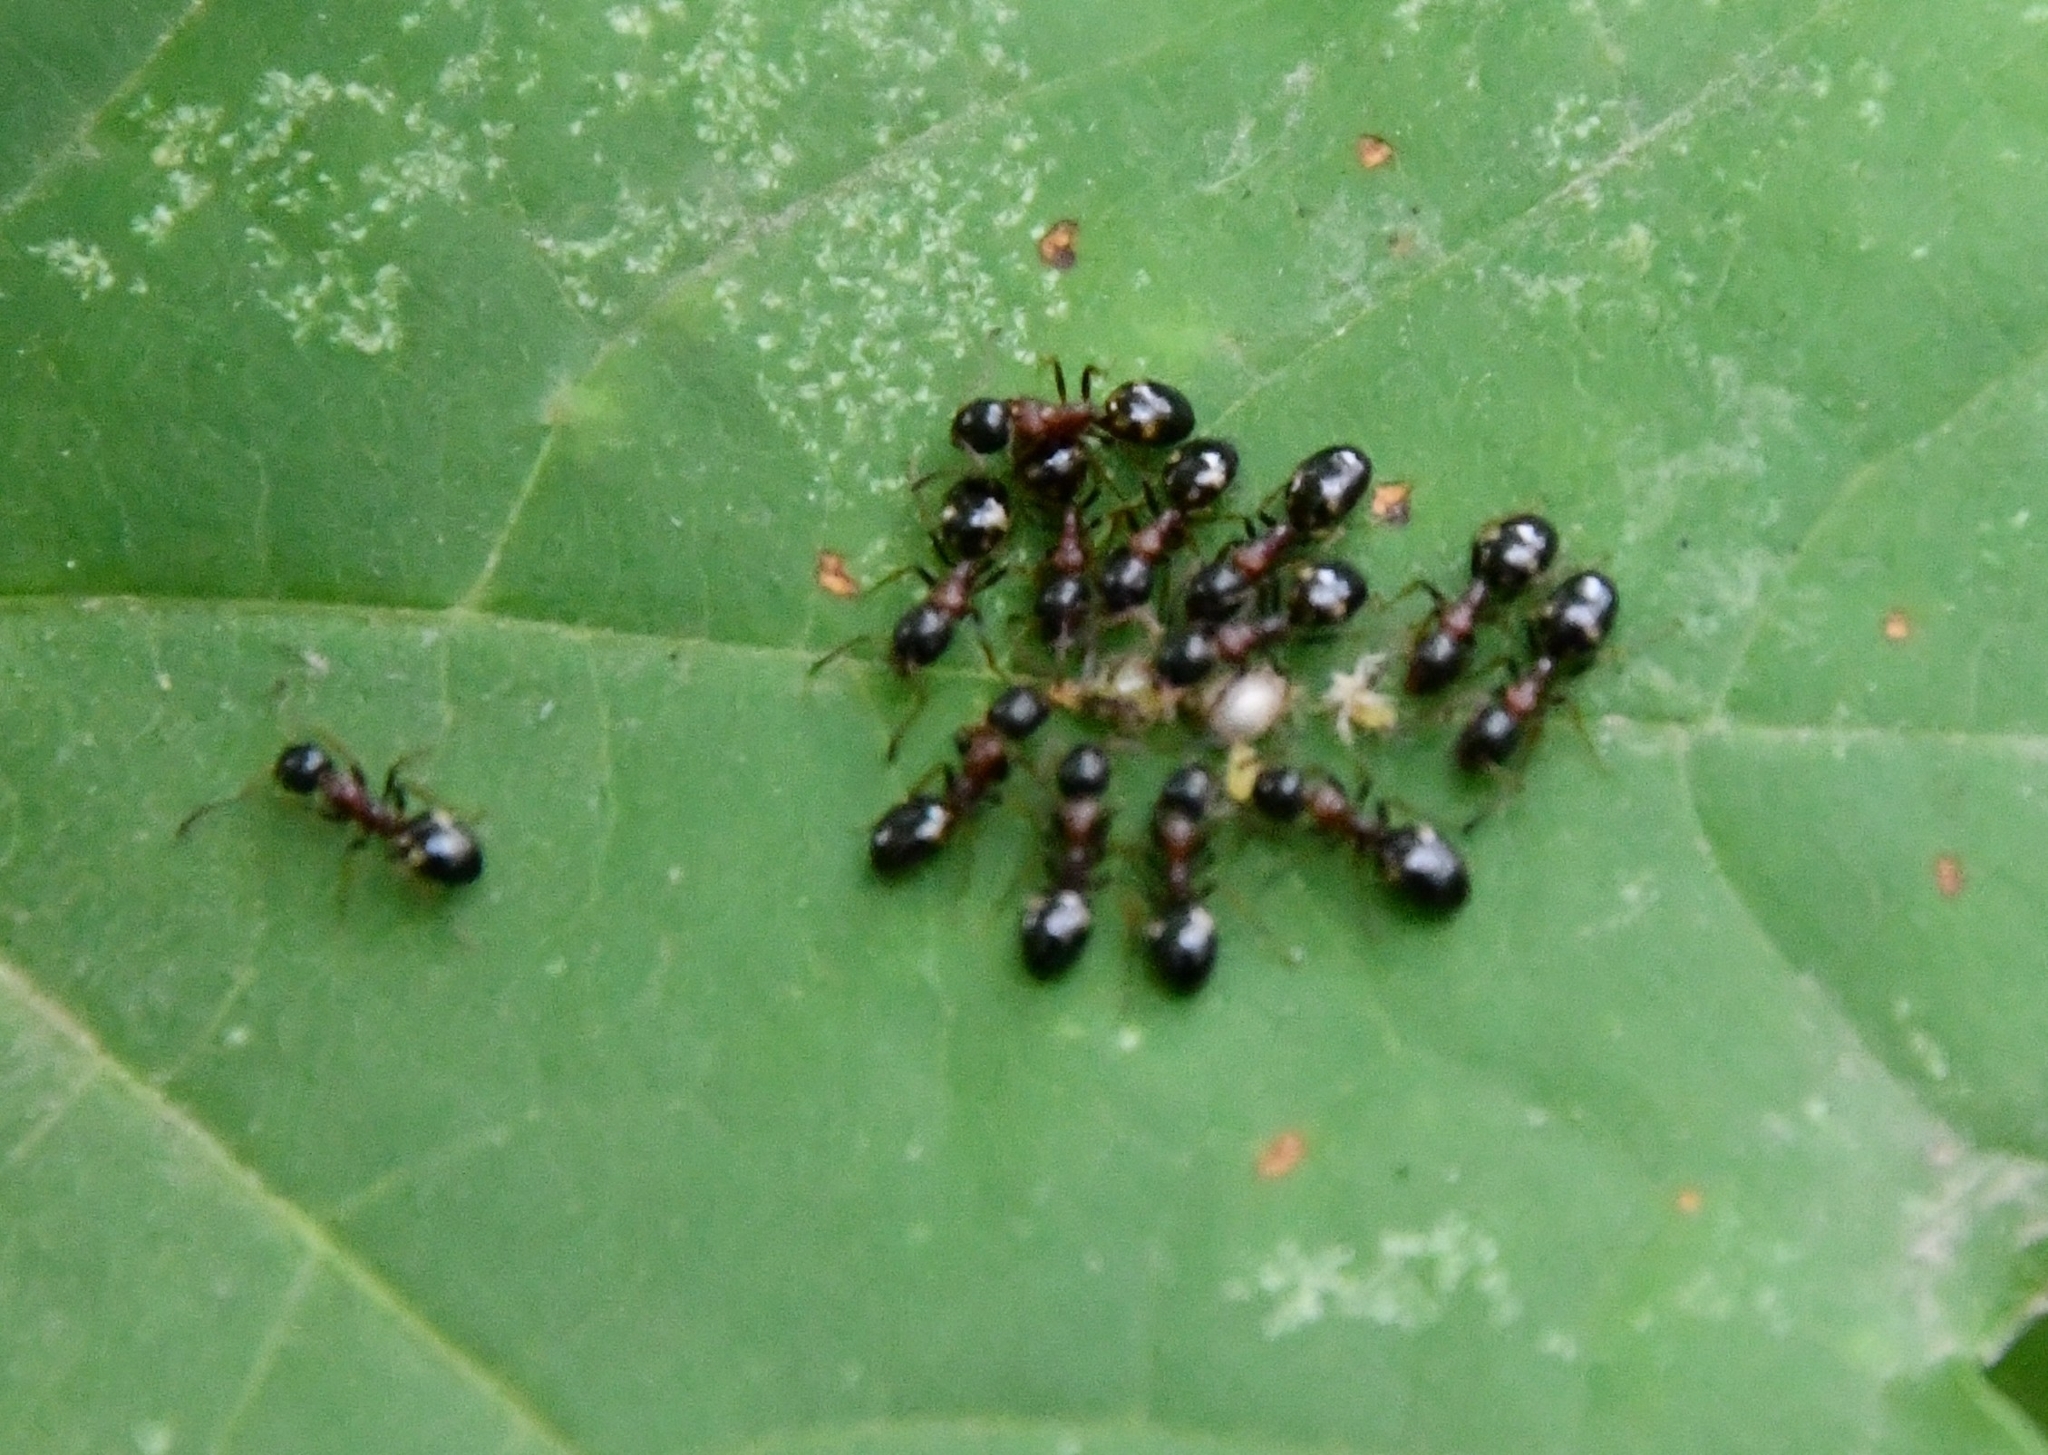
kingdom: Animalia
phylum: Arthropoda
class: Insecta
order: Hymenoptera
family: Formicidae
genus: Dolichoderus
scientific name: Dolichoderus quadripunctatus
